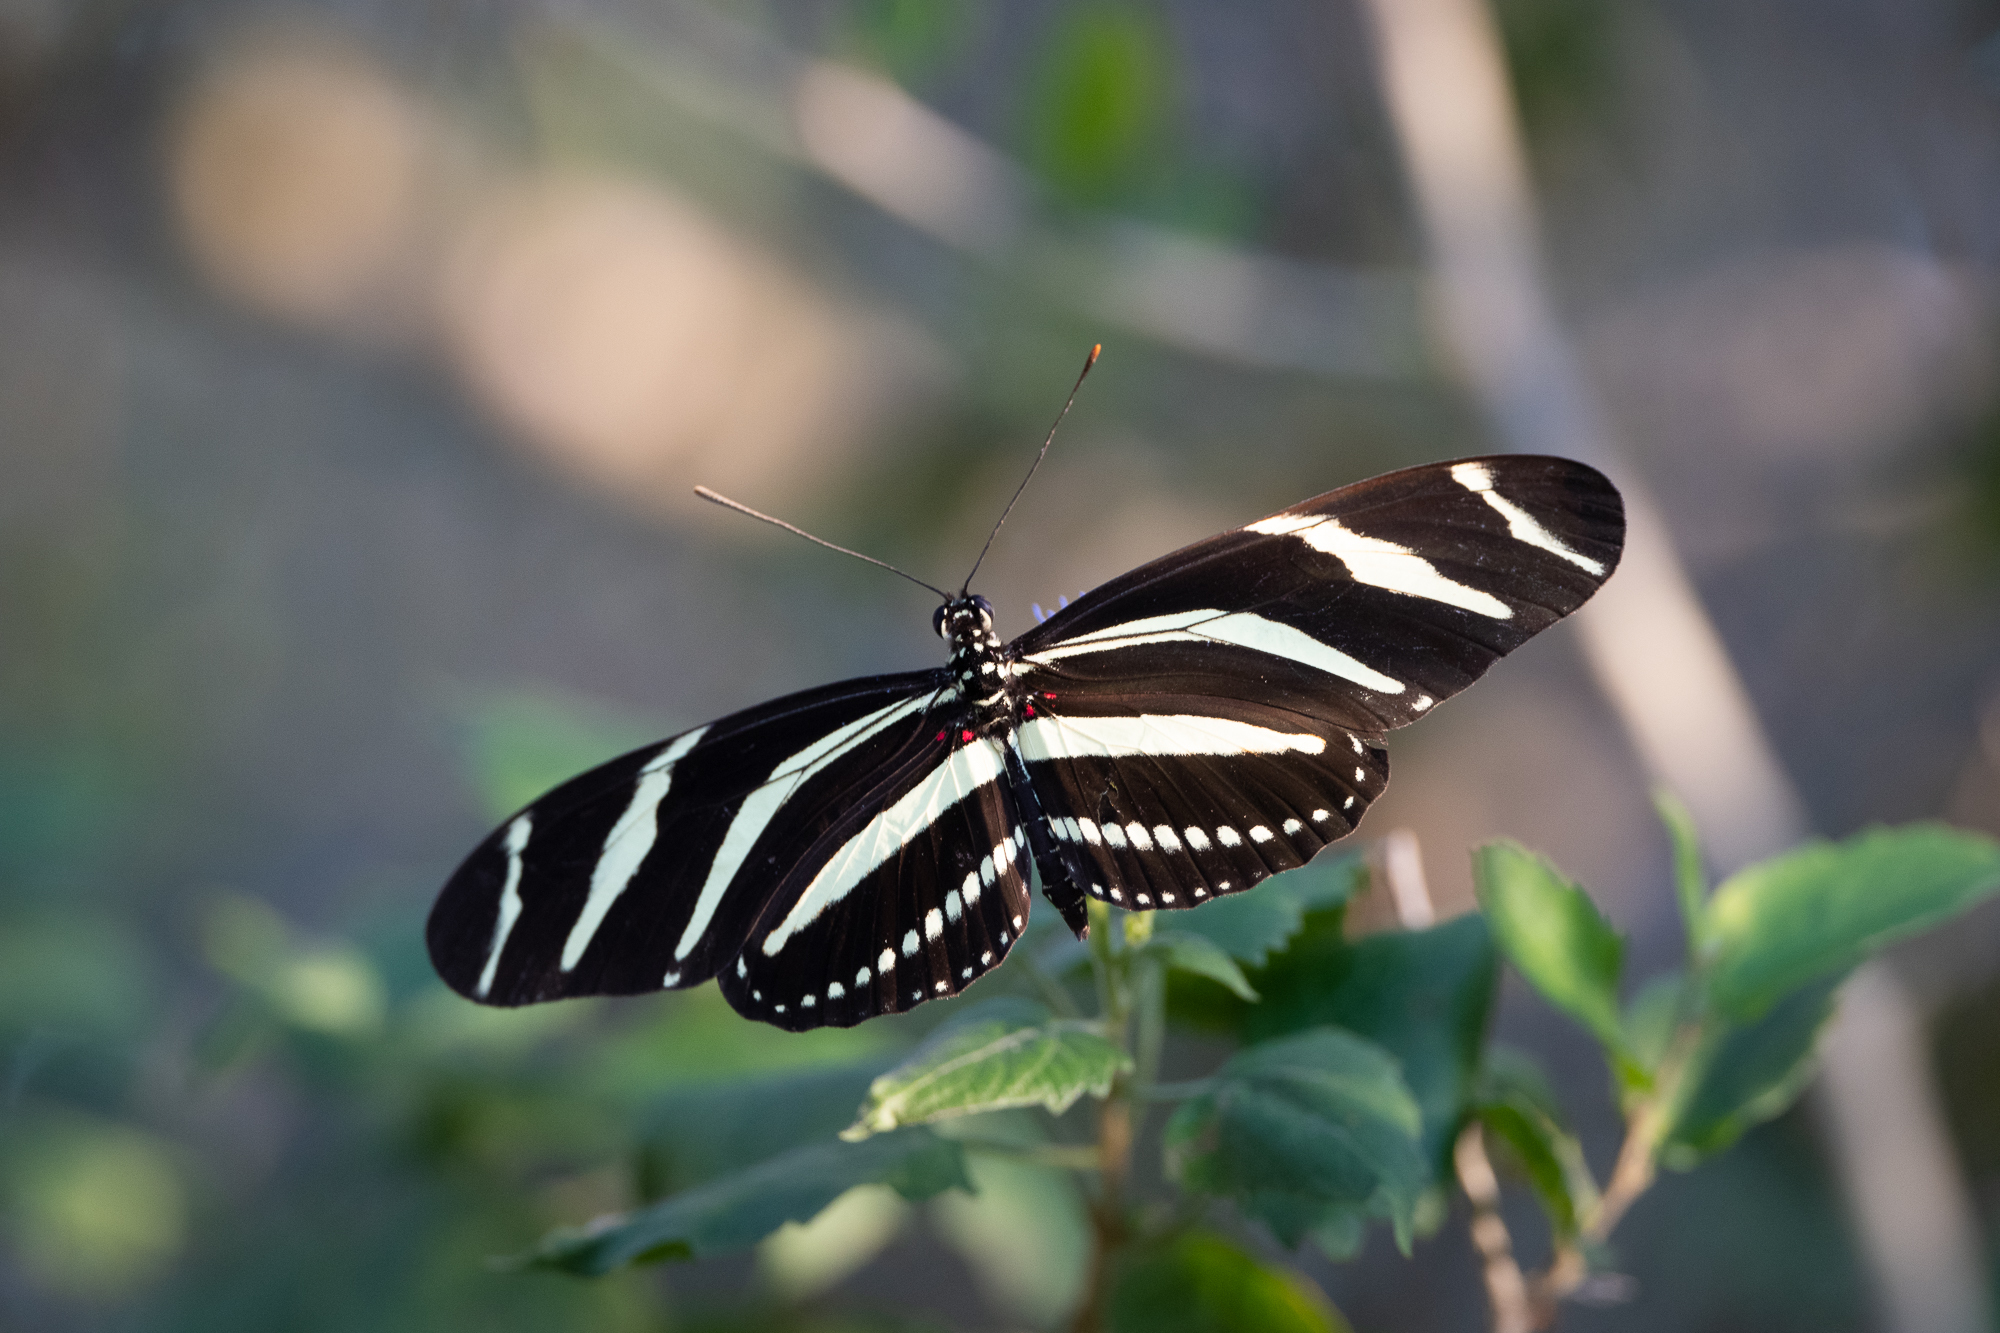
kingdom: Animalia
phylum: Arthropoda
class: Insecta
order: Lepidoptera
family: Nymphalidae
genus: Heliconius
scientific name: Heliconius charithonia
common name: Zebra long wing
